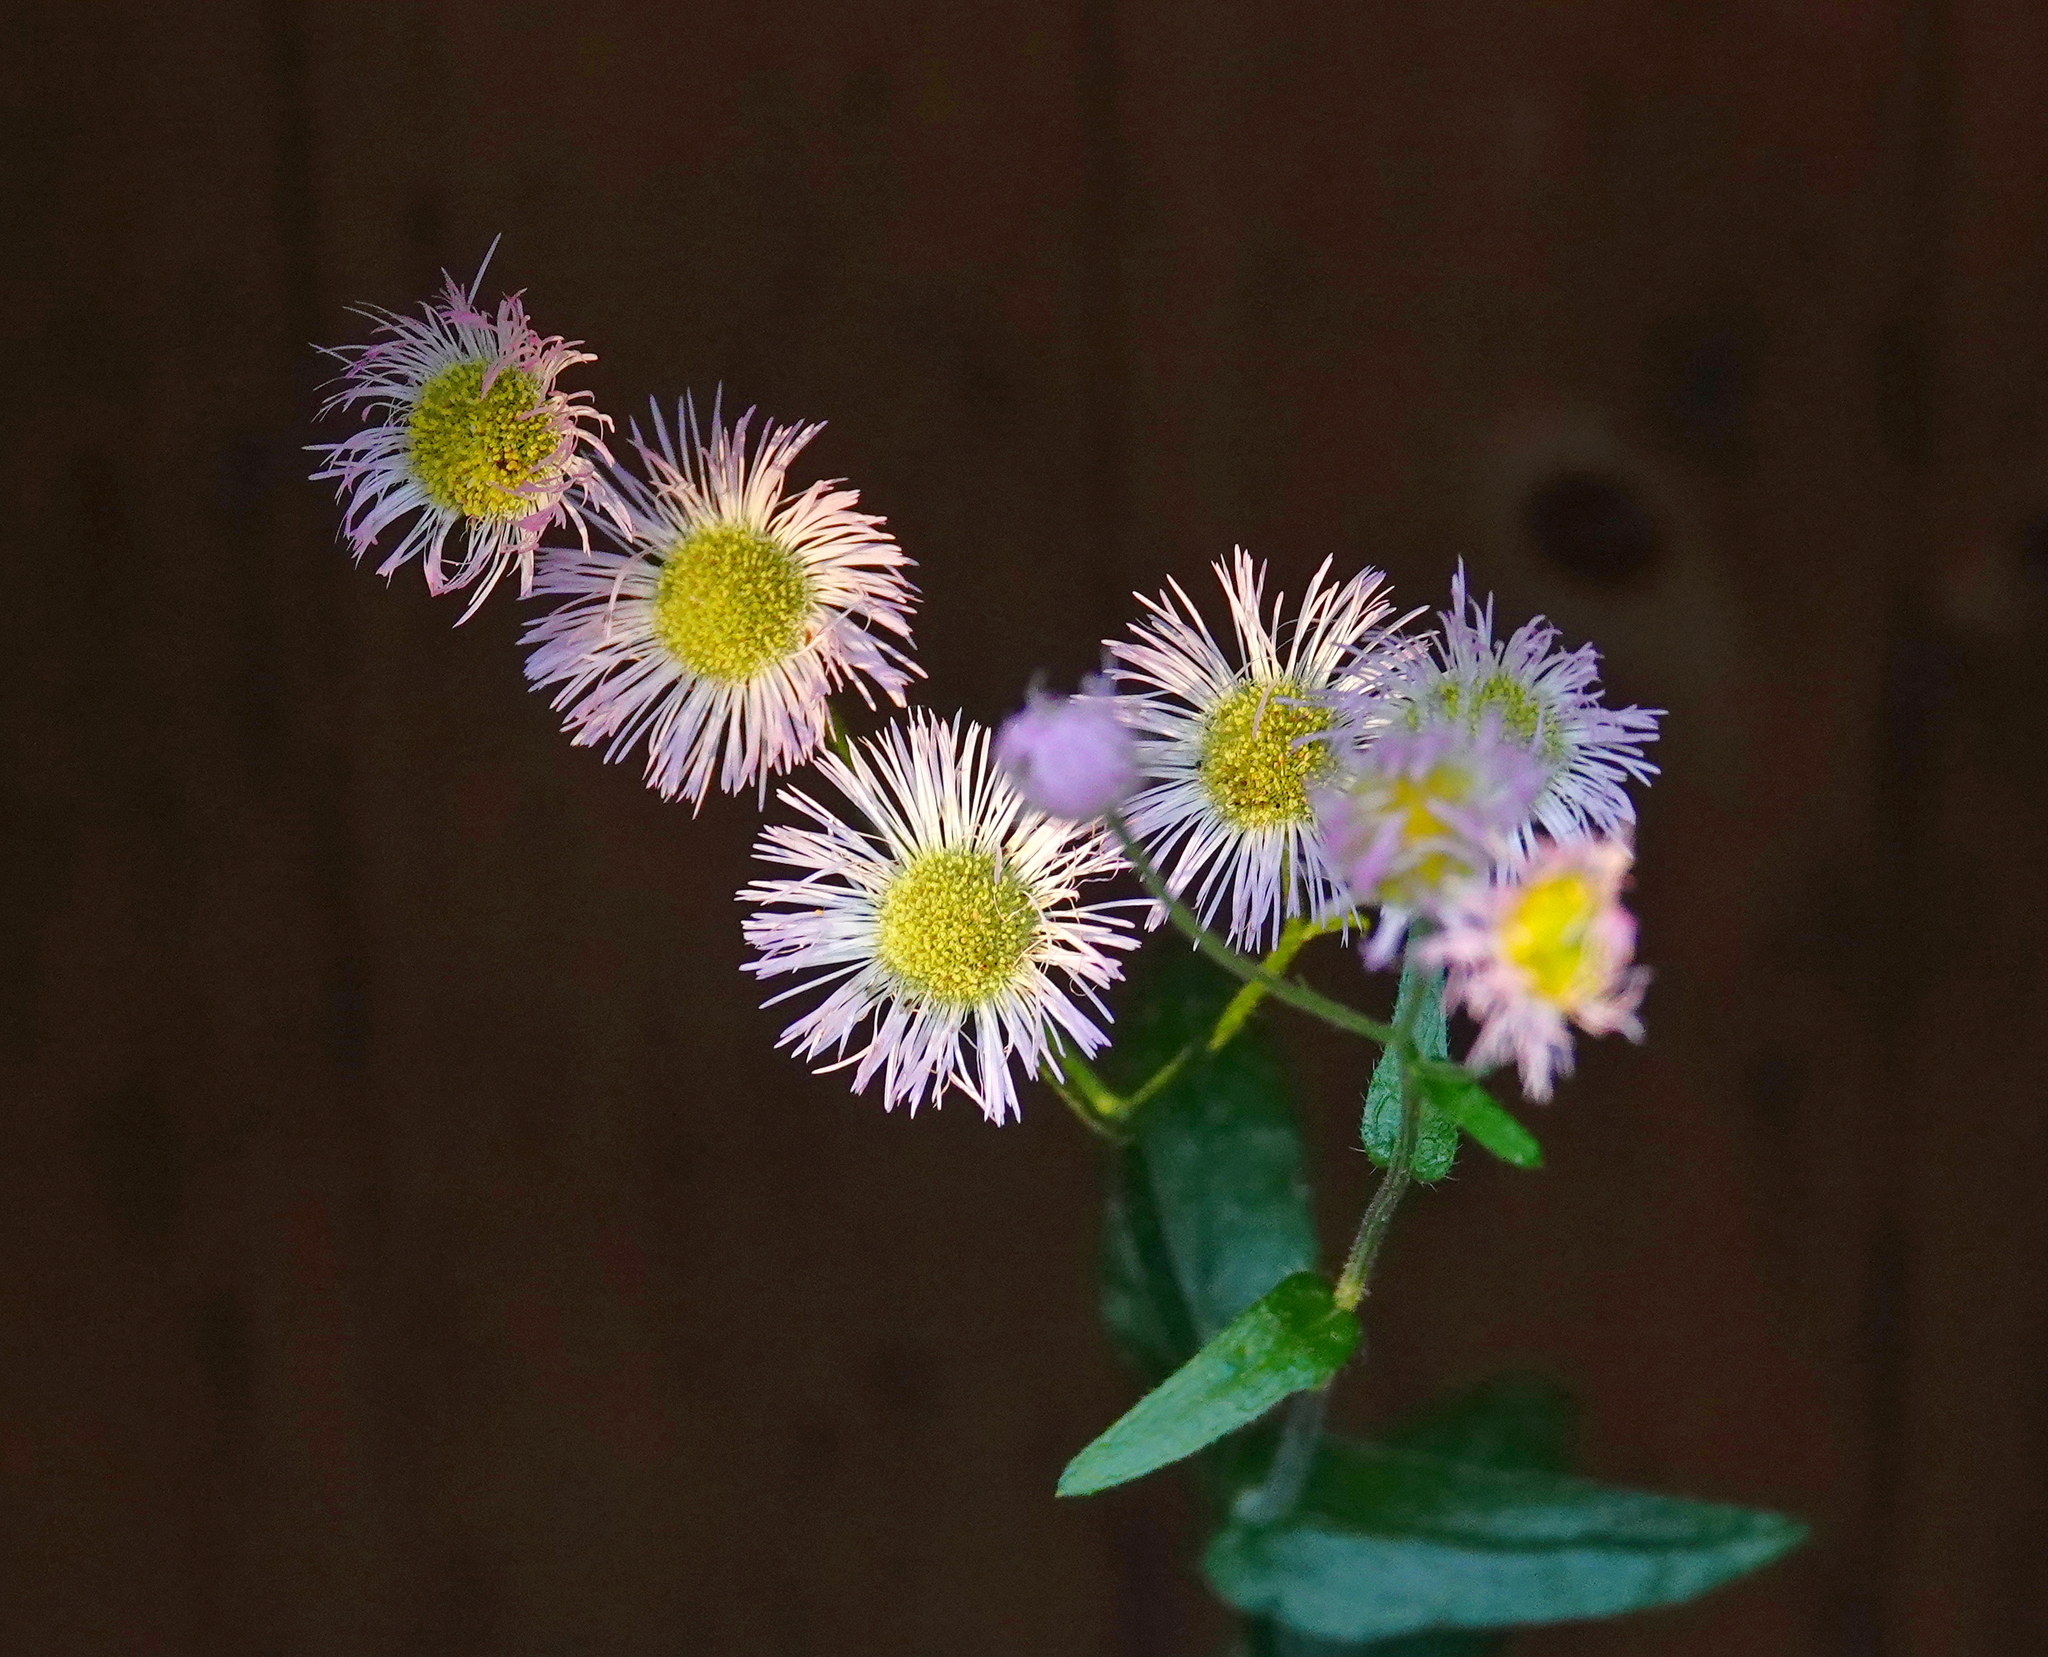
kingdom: Plantae
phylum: Tracheophyta
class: Magnoliopsida
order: Asterales
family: Asteraceae
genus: Erigeron
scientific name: Erigeron philadelphicus
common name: Robin's-plantain
